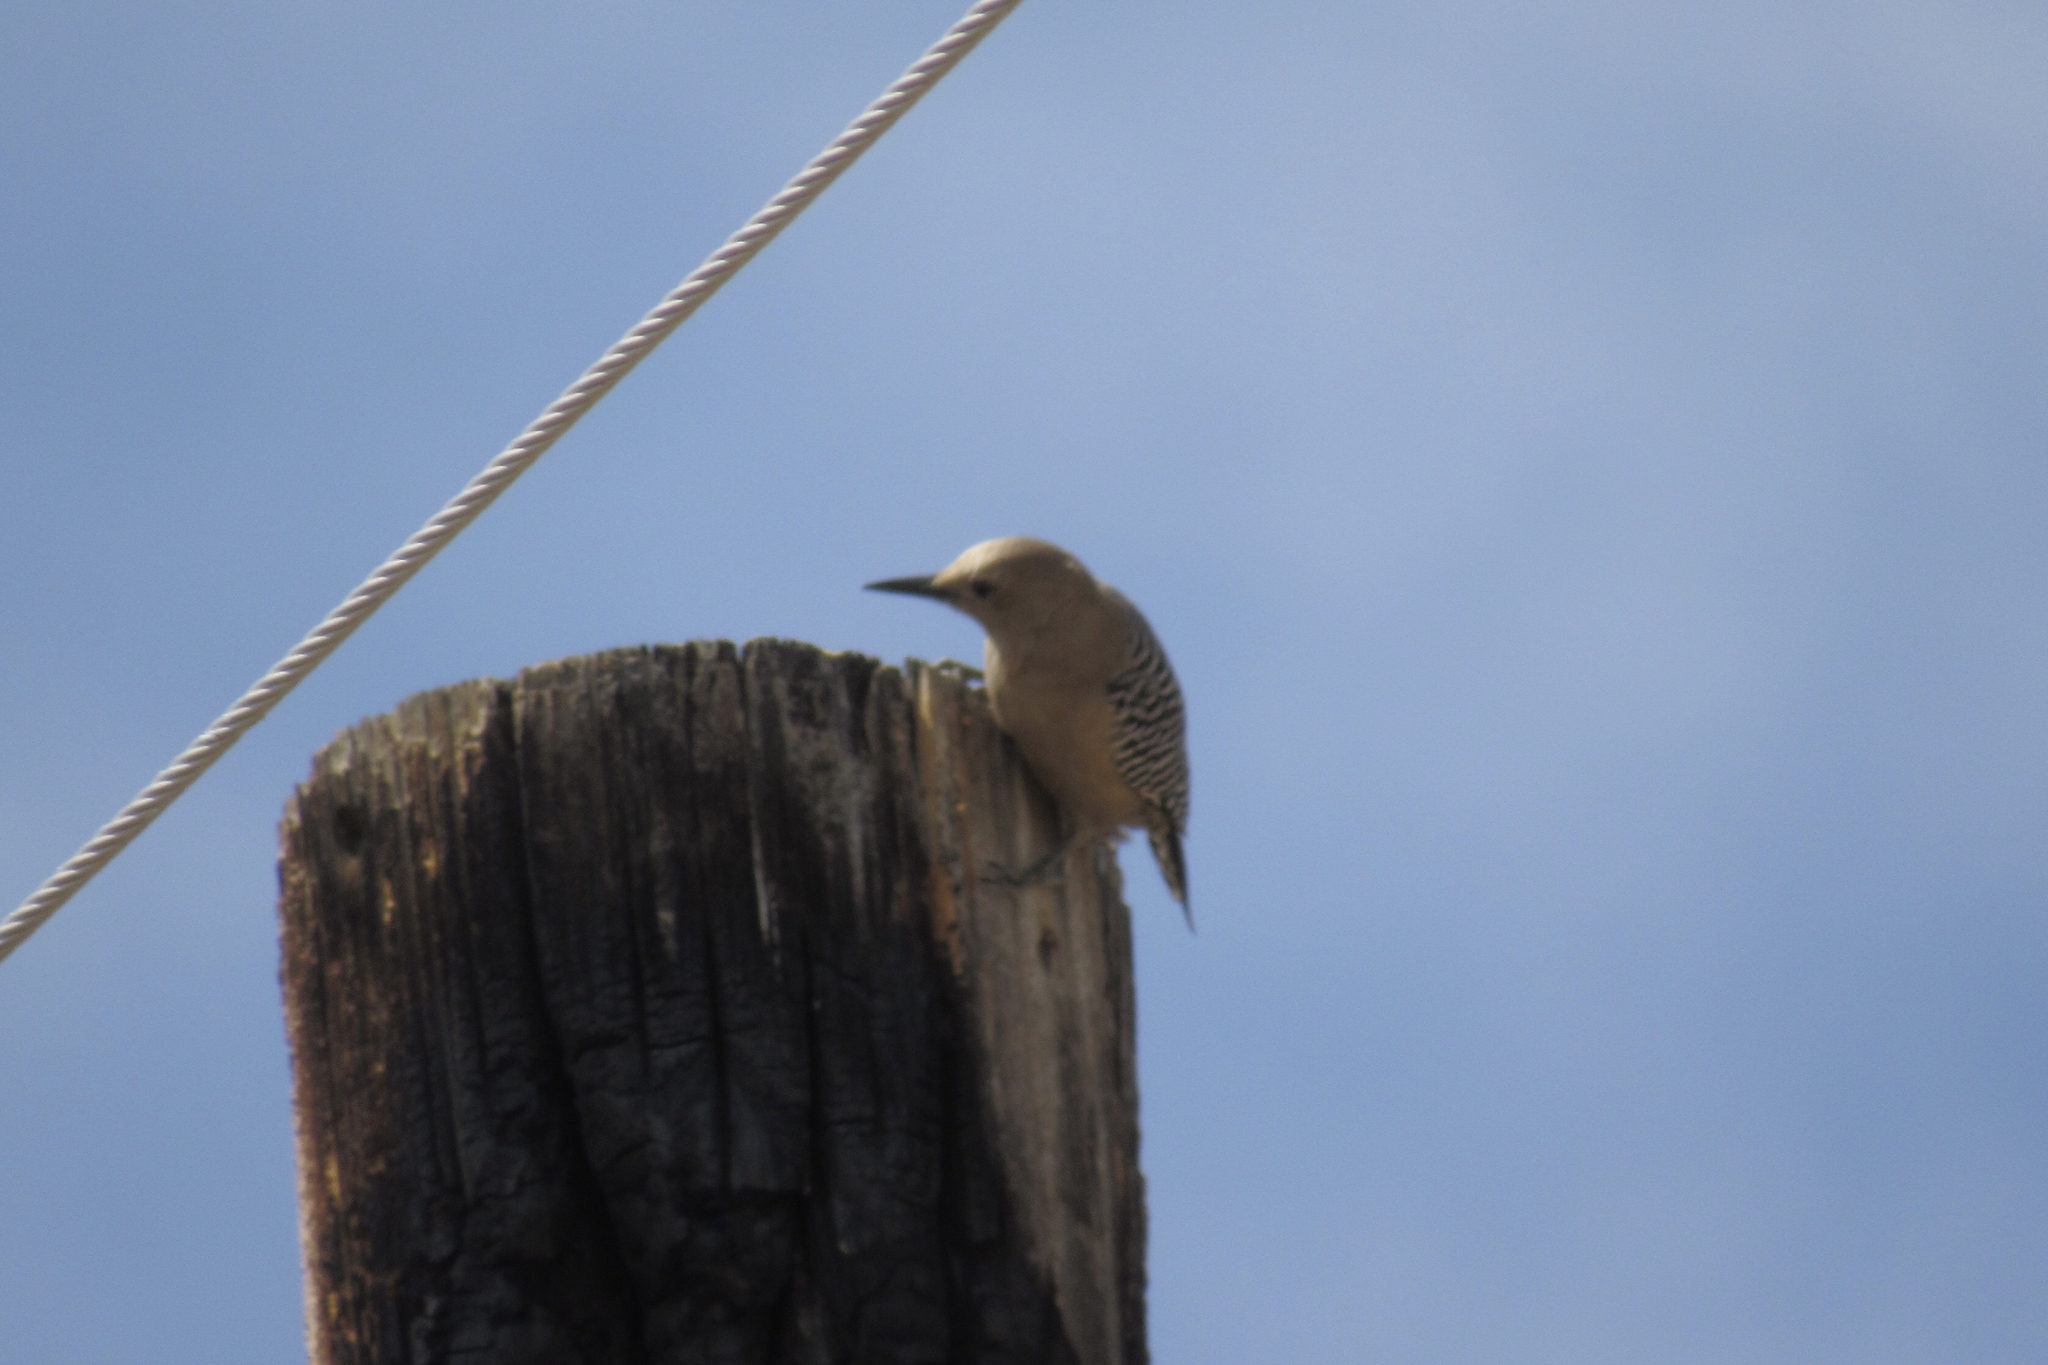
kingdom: Animalia
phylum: Chordata
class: Aves
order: Piciformes
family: Picidae
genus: Melanerpes
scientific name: Melanerpes uropygialis
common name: Gila woodpecker
